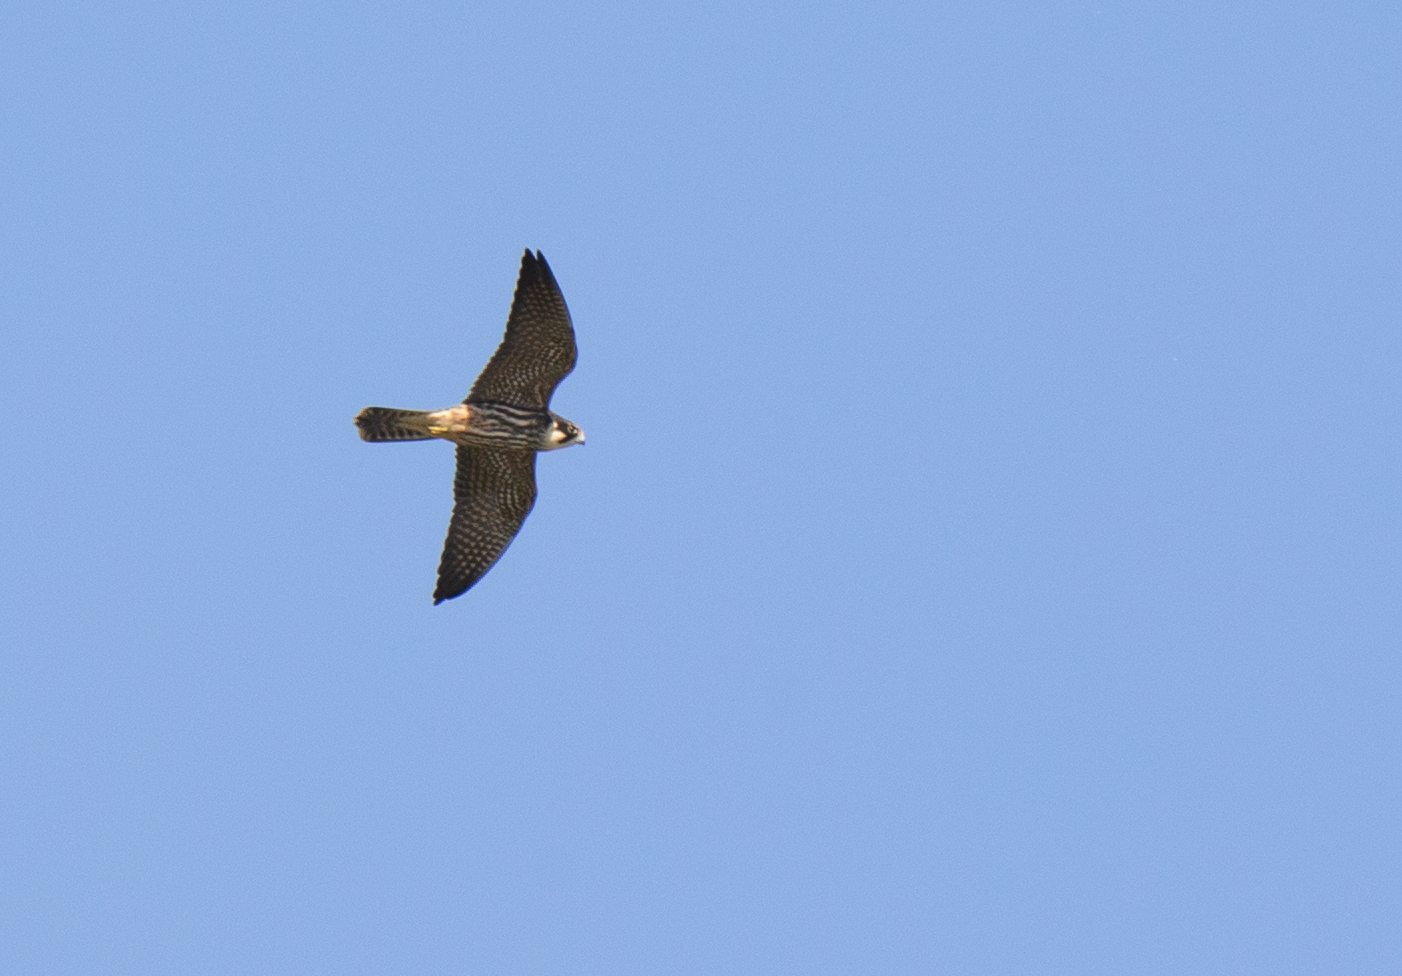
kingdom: Animalia
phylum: Chordata
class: Aves
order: Falconiformes
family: Falconidae
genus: Falco
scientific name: Falco subbuteo
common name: Eurasian hobby
